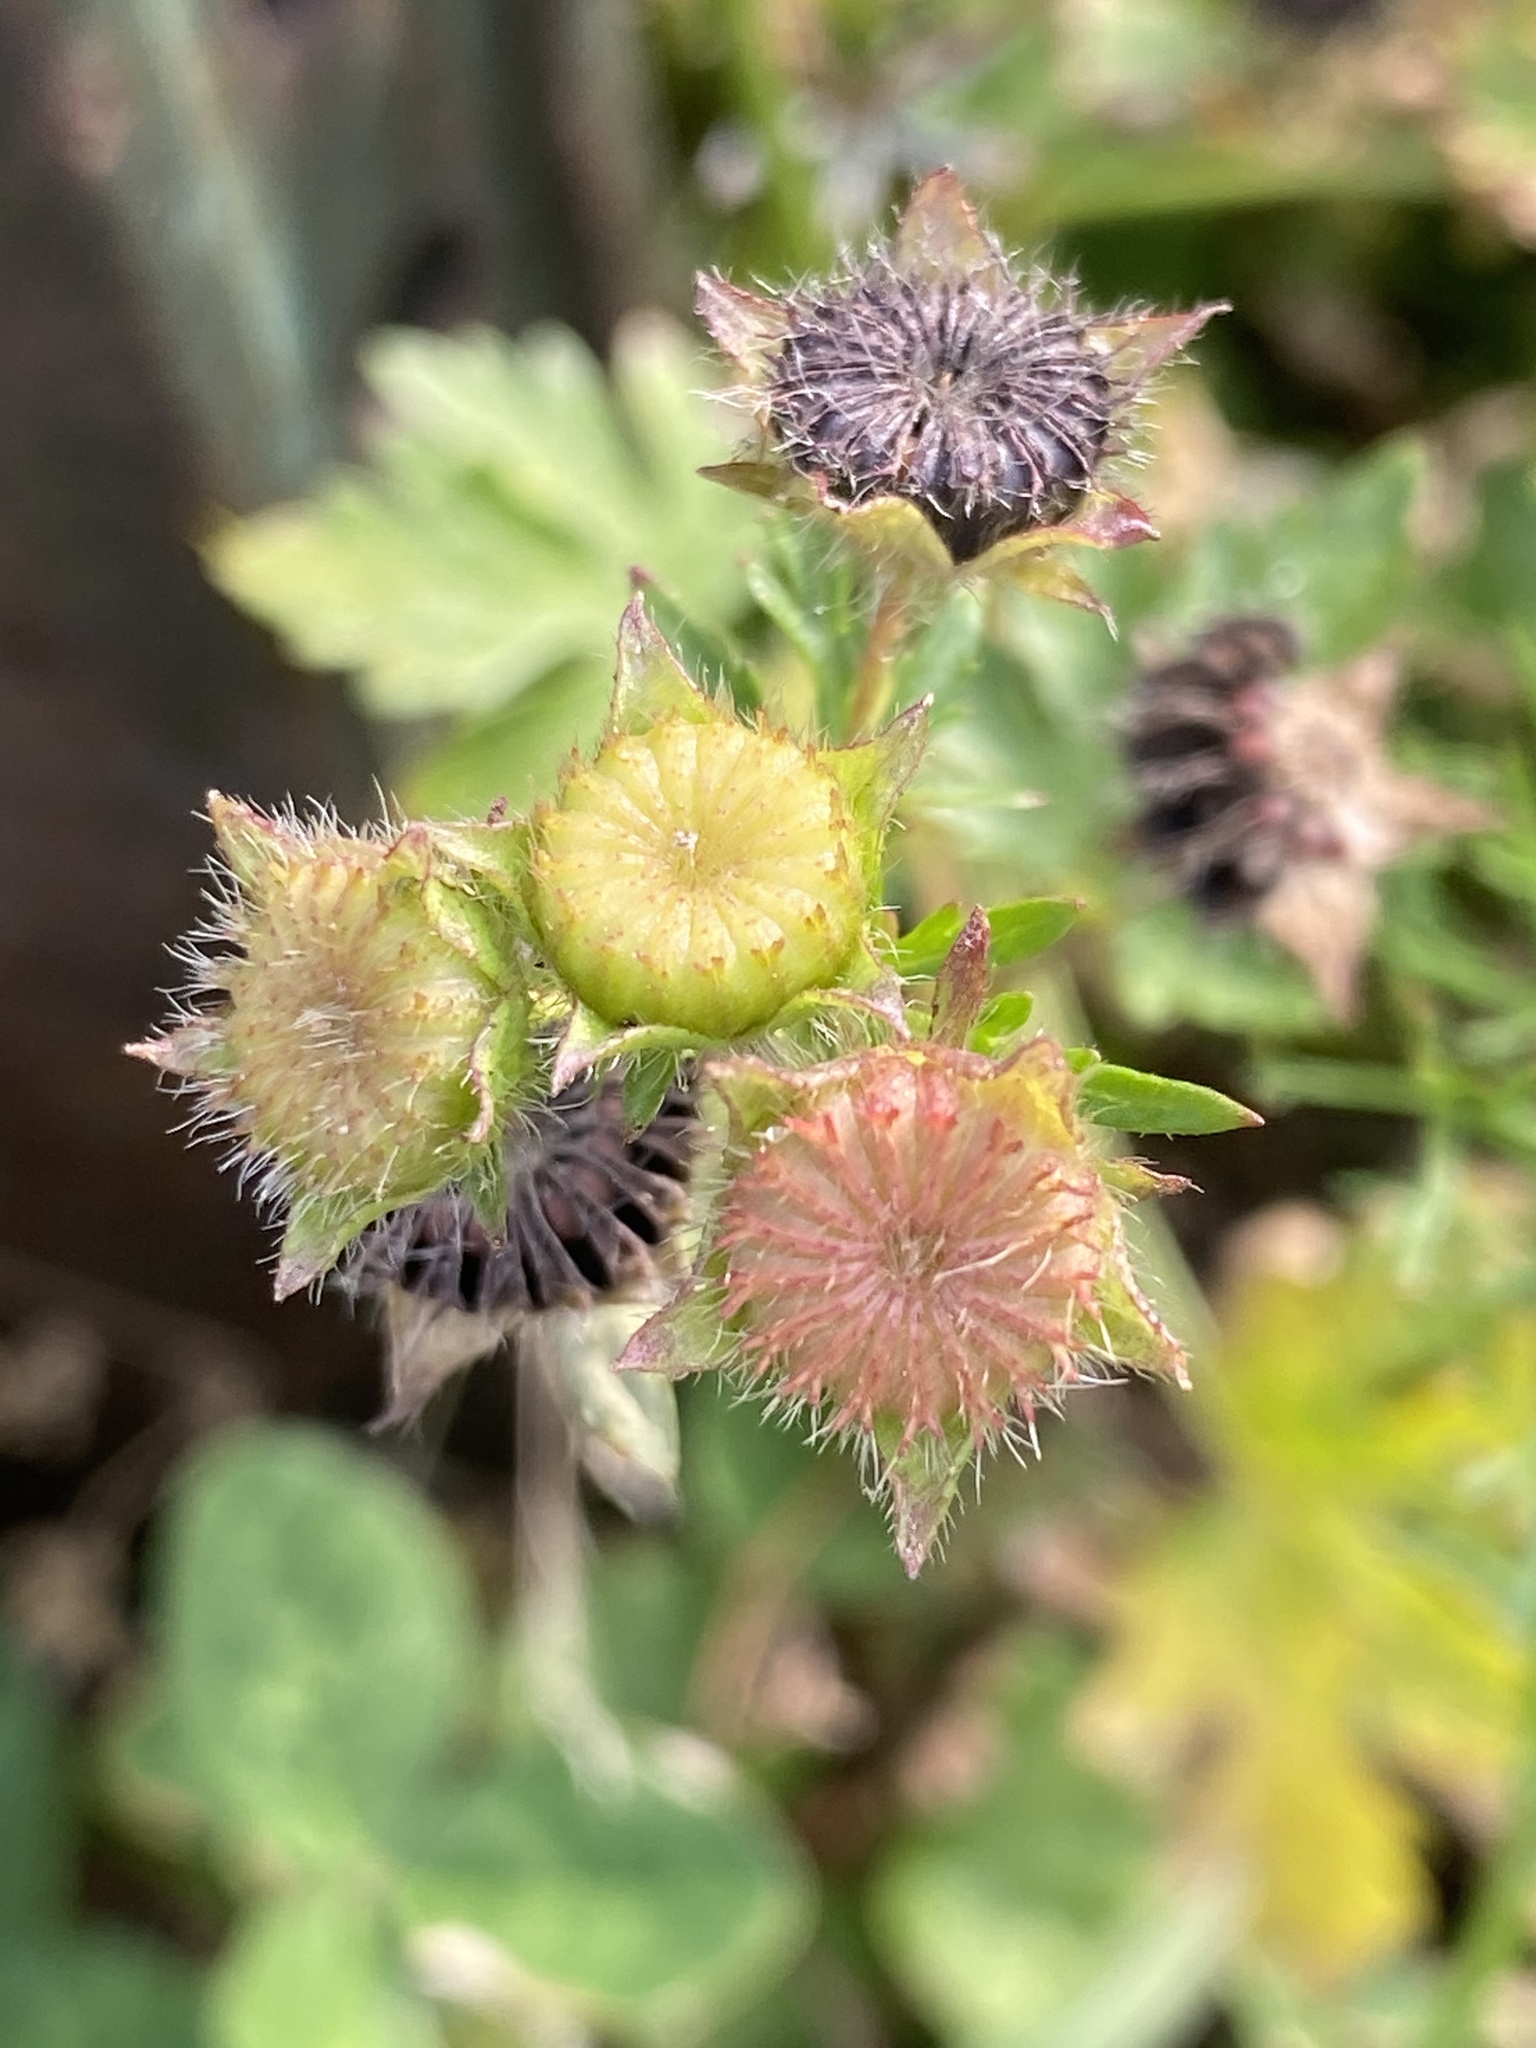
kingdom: Plantae
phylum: Tracheophyta
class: Magnoliopsida
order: Malvales
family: Malvaceae
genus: Modiola
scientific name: Modiola caroliniana
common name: Carolina bristlemallow
